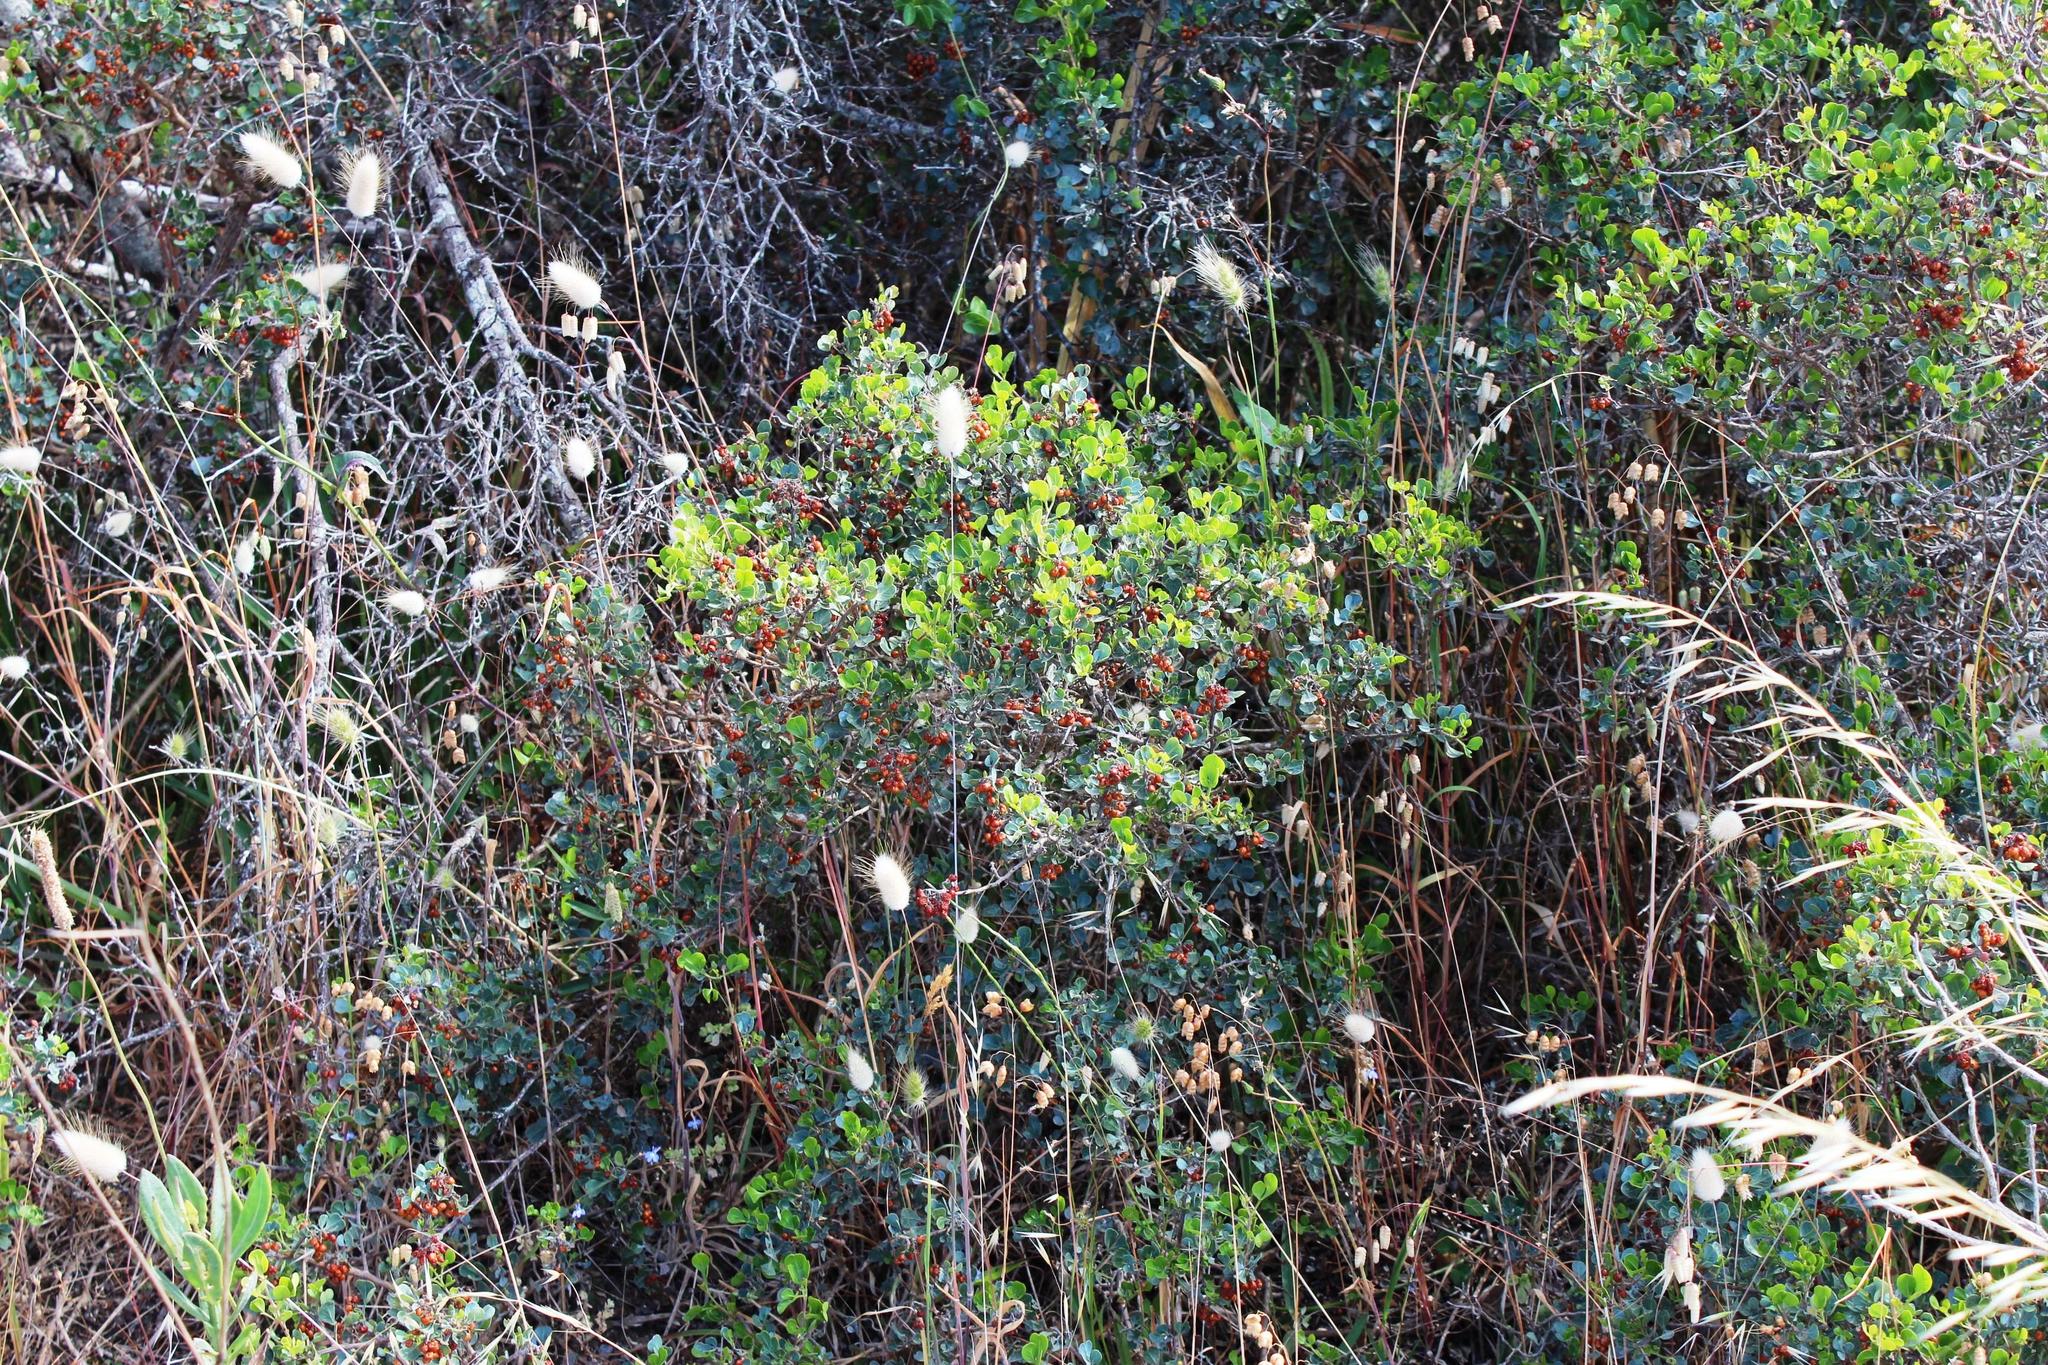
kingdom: Plantae
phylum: Tracheophyta
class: Magnoliopsida
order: Sapindales
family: Anacardiaceae
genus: Searsia
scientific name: Searsia glauca
